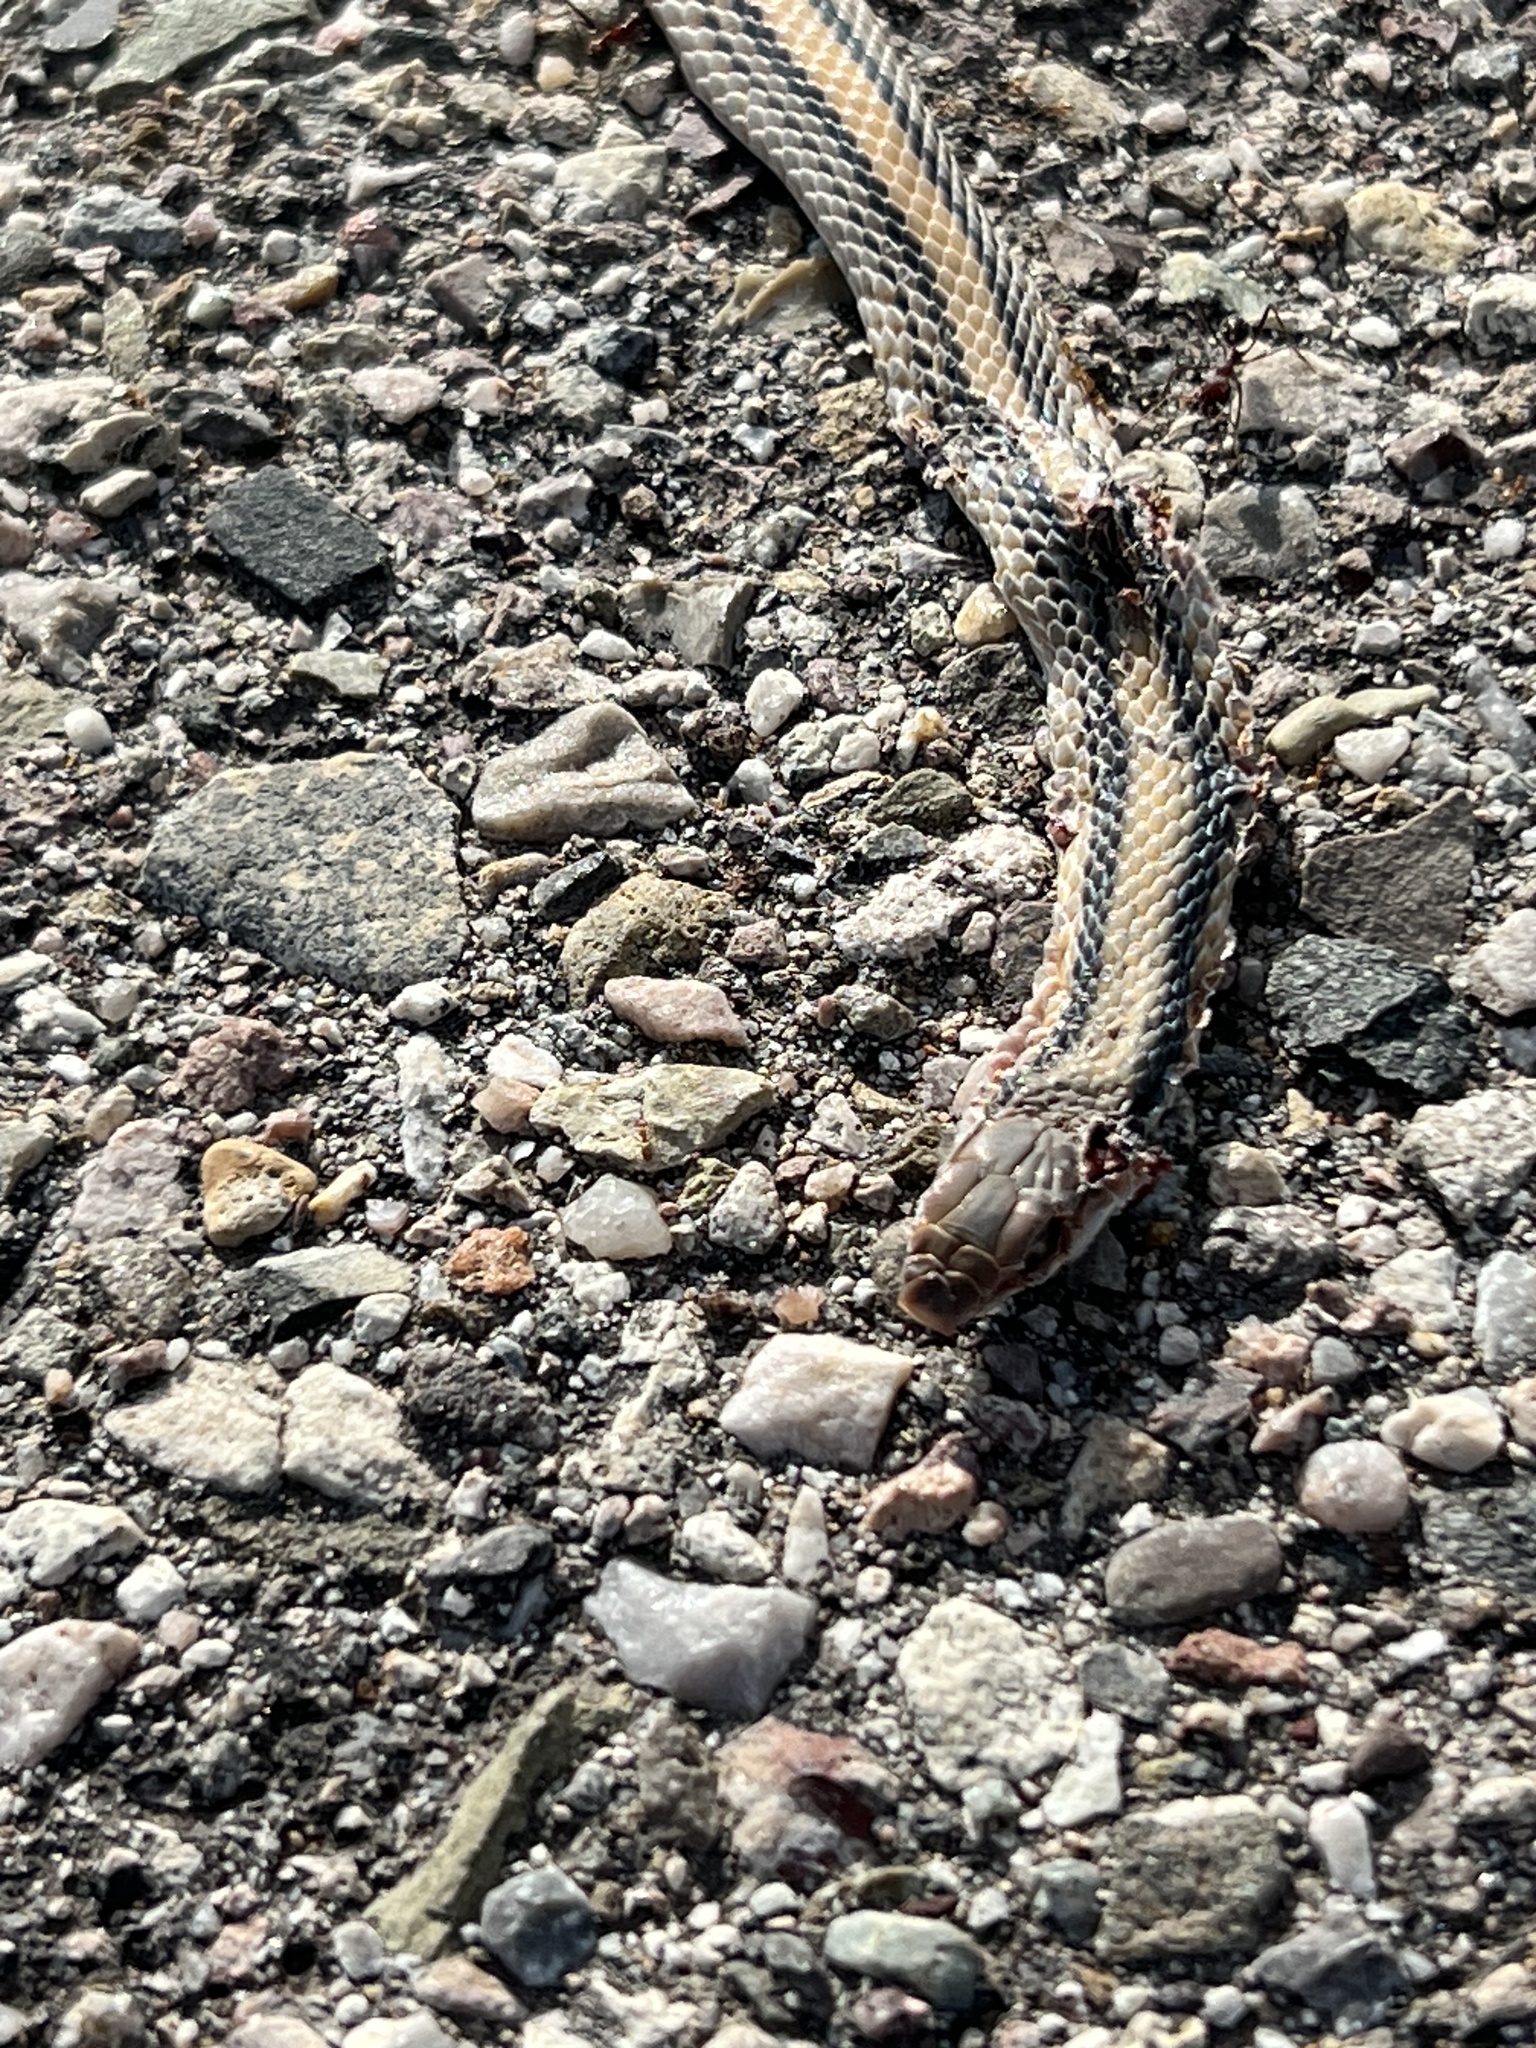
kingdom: Animalia
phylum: Chordata
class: Squamata
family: Colubridae
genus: Salvadora
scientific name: Salvadora deserticola
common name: Big bend patchnose snake
